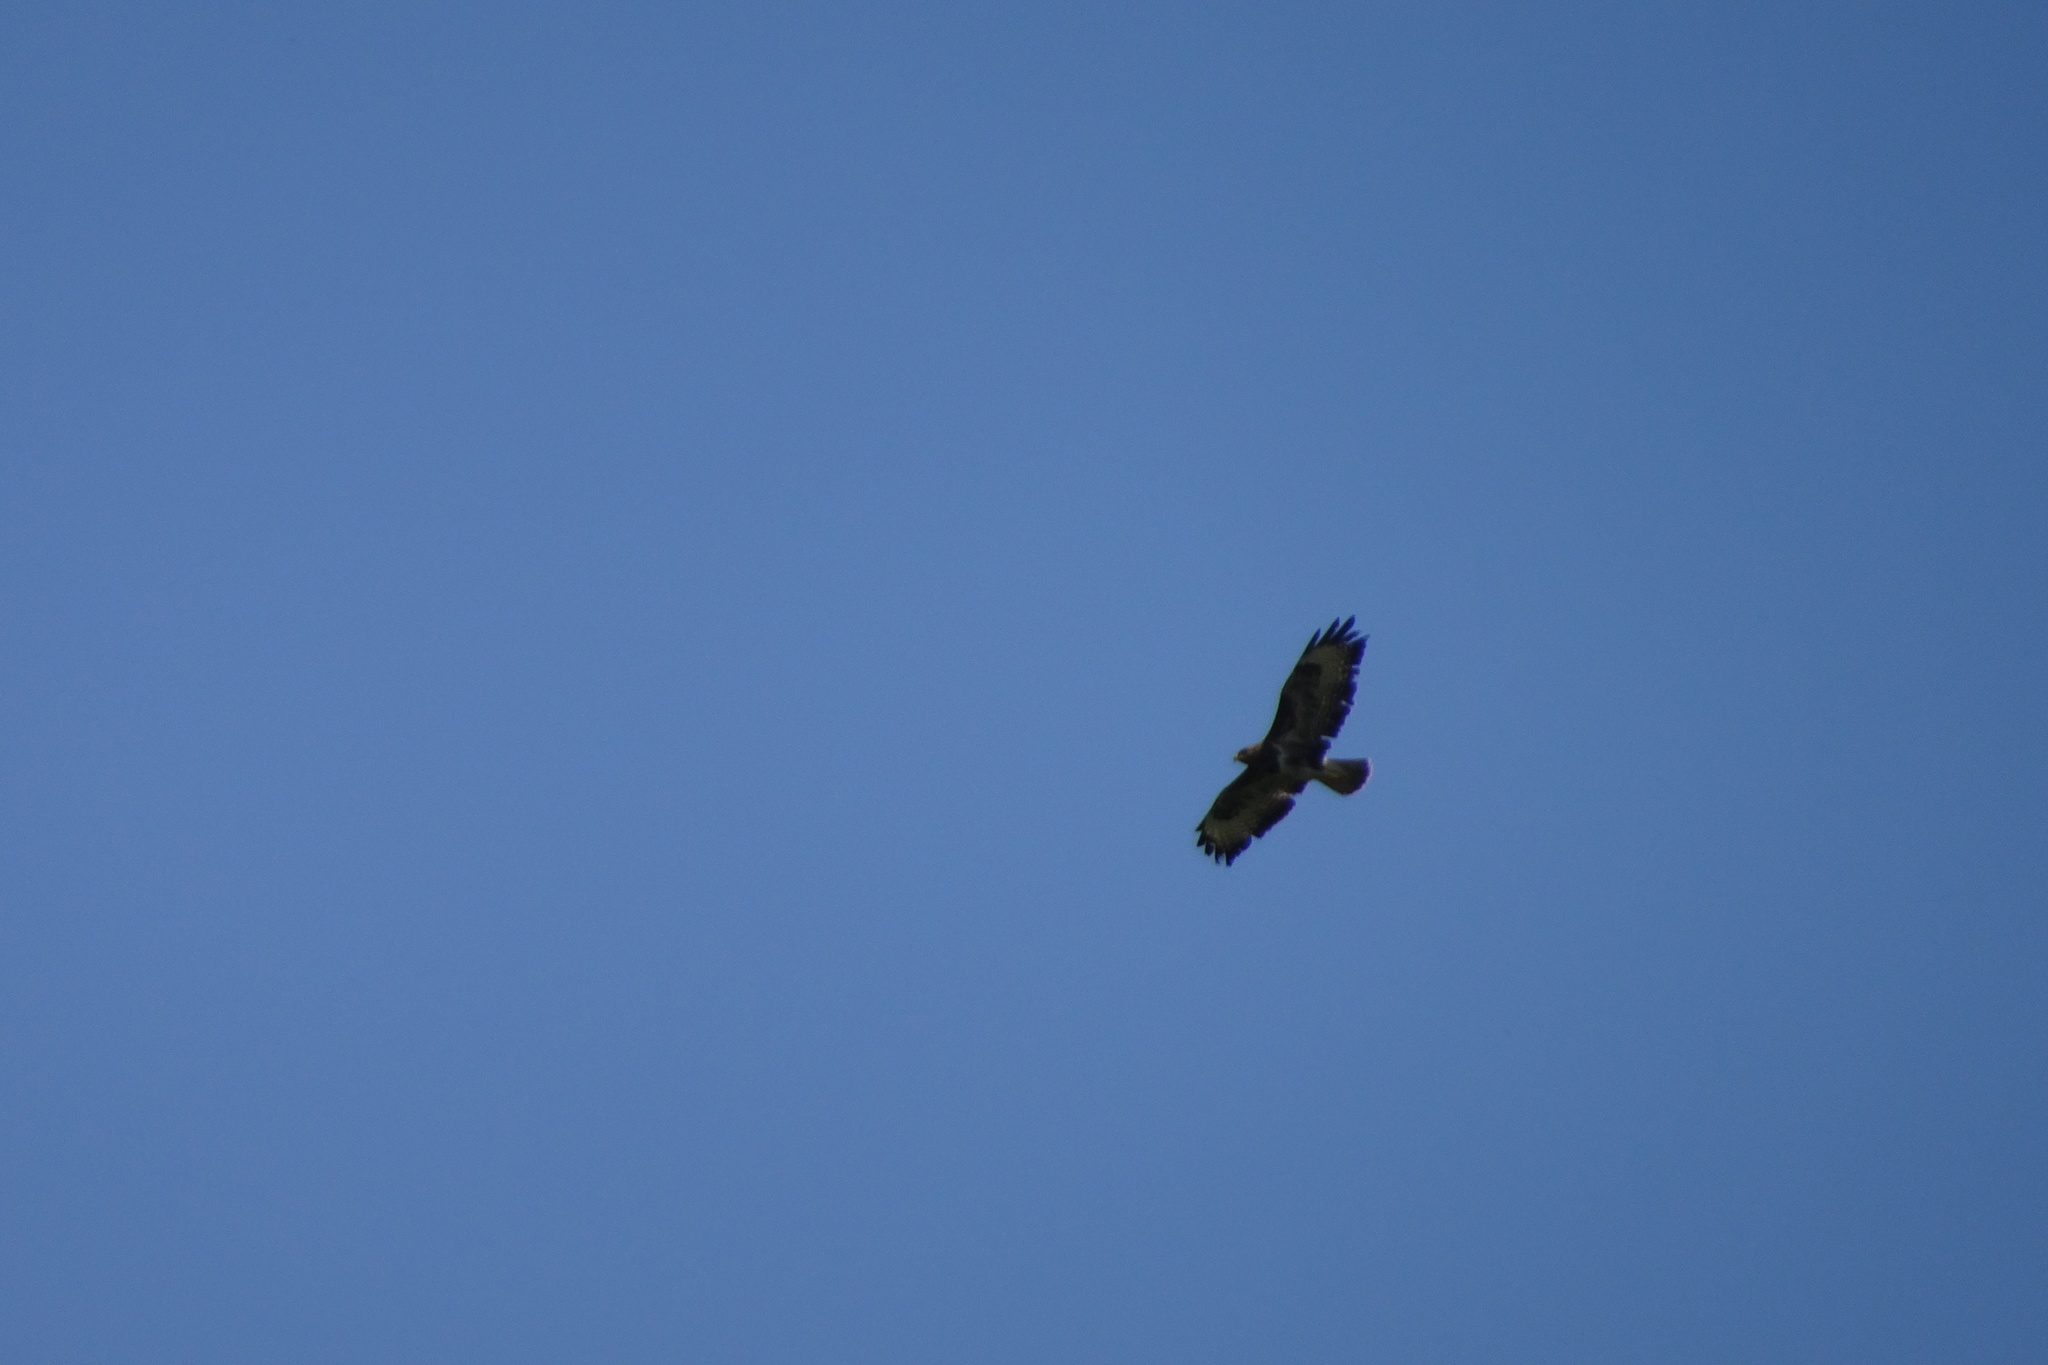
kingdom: Animalia
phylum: Chordata
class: Aves
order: Accipitriformes
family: Accipitridae
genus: Buteo
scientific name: Buteo buteo
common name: Common buzzard
